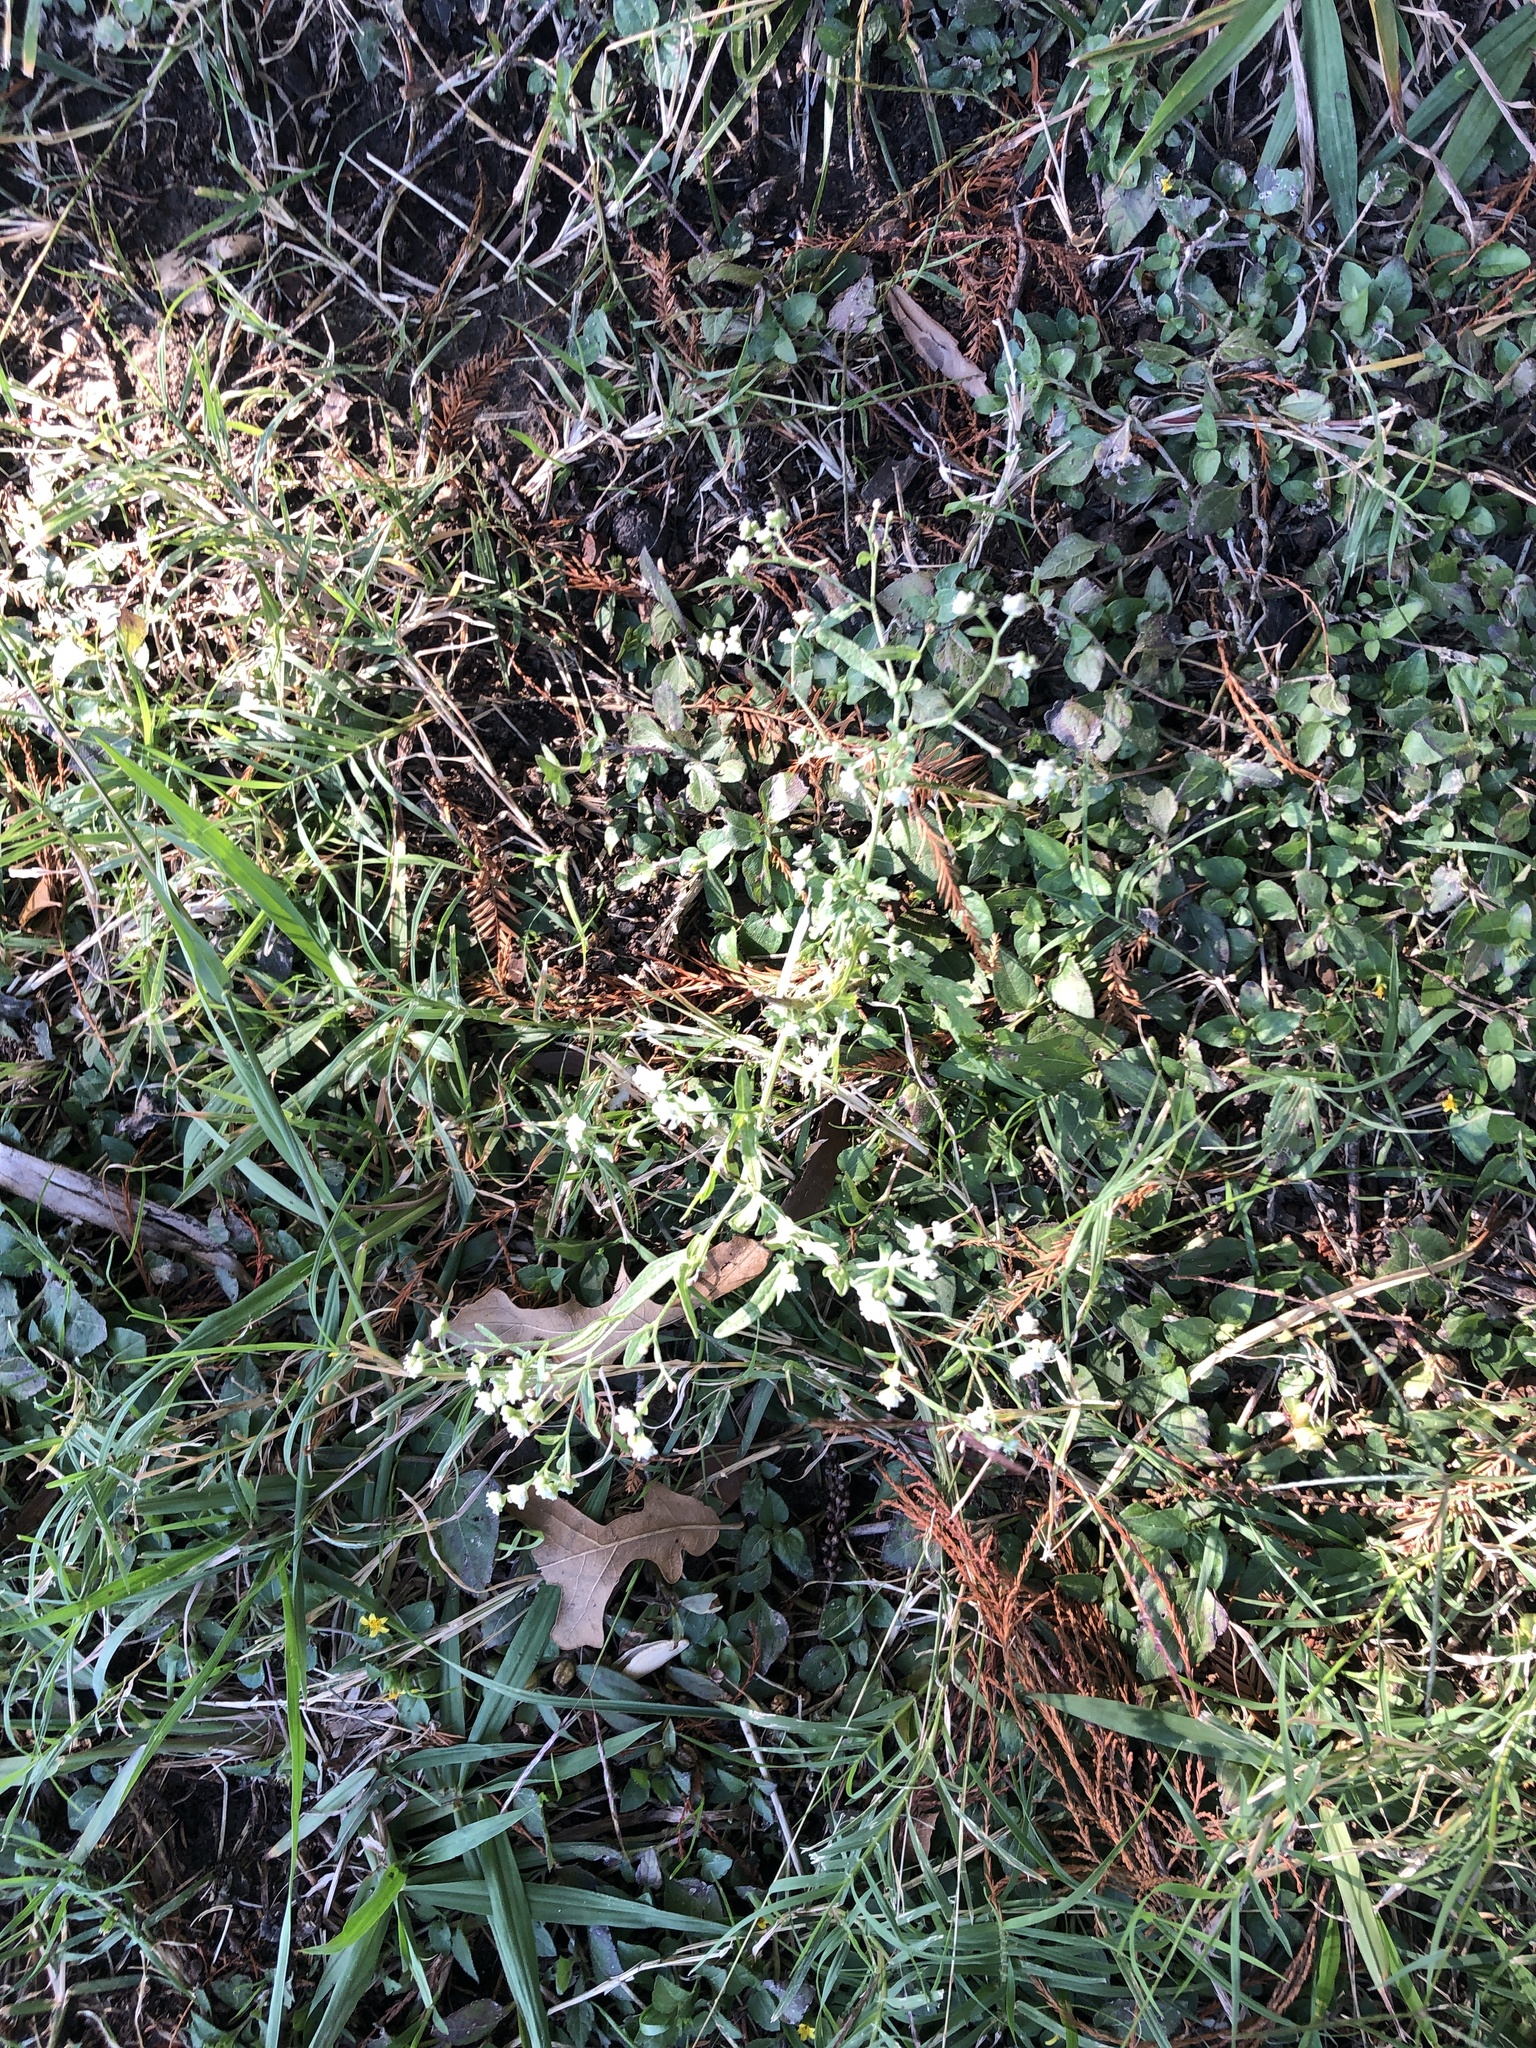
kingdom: Plantae
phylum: Tracheophyta
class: Magnoliopsida
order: Asterales
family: Asteraceae
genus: Parthenium
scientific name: Parthenium hysterophorus
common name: Santa maria feverfew
